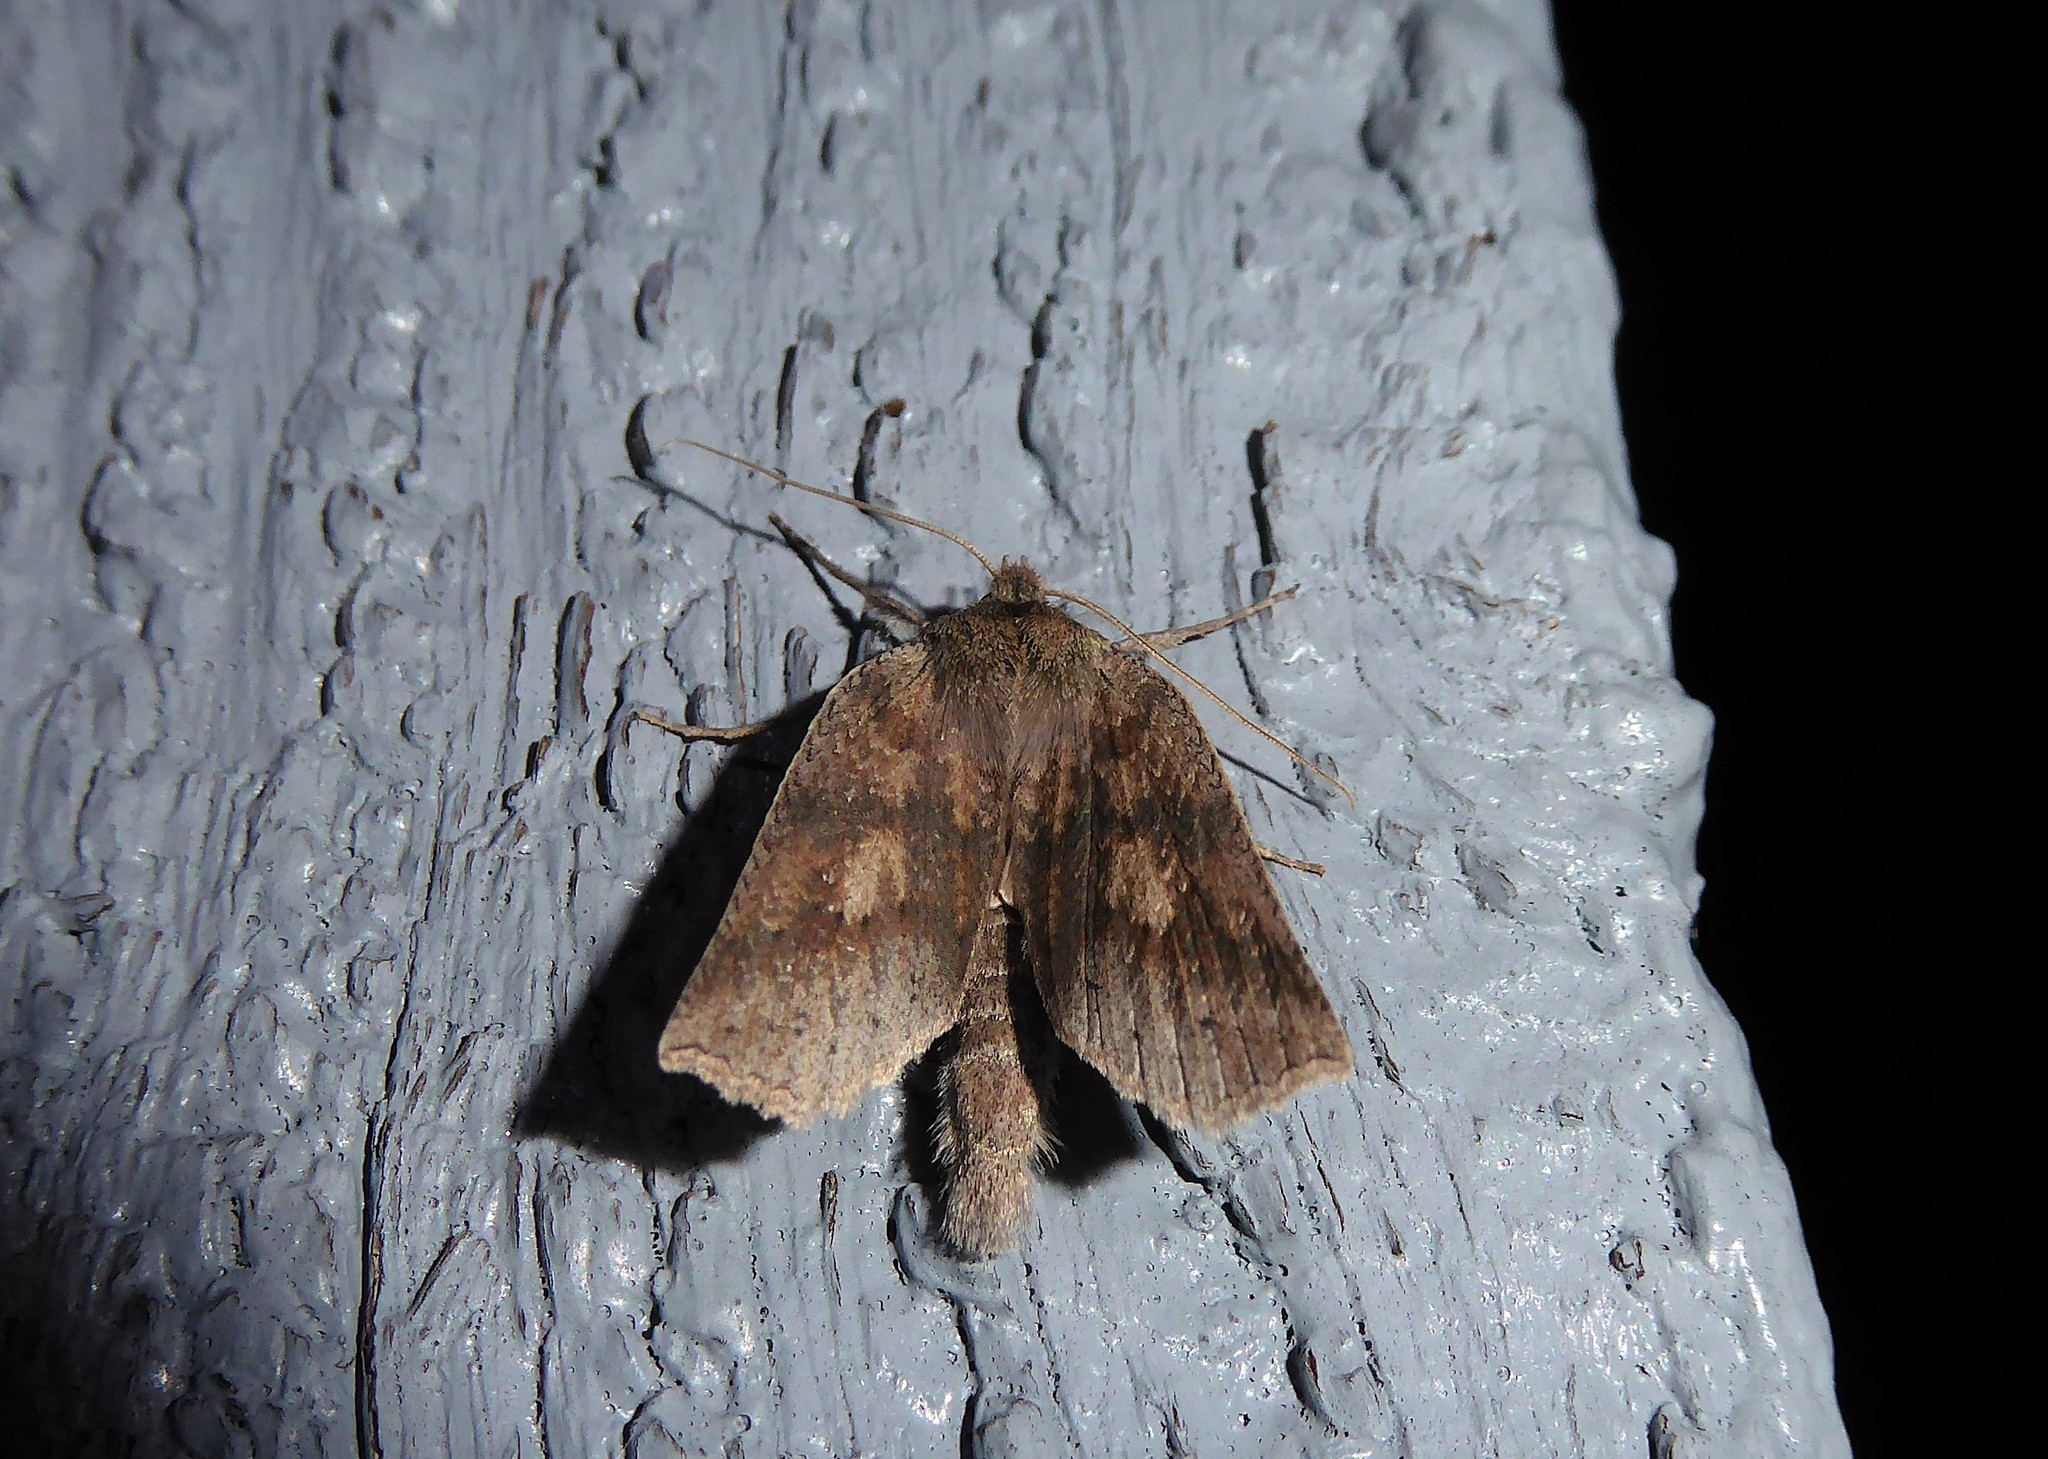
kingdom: Animalia
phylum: Arthropoda
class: Insecta
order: Lepidoptera
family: Geometridae
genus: Declana
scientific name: Declana leptomera
